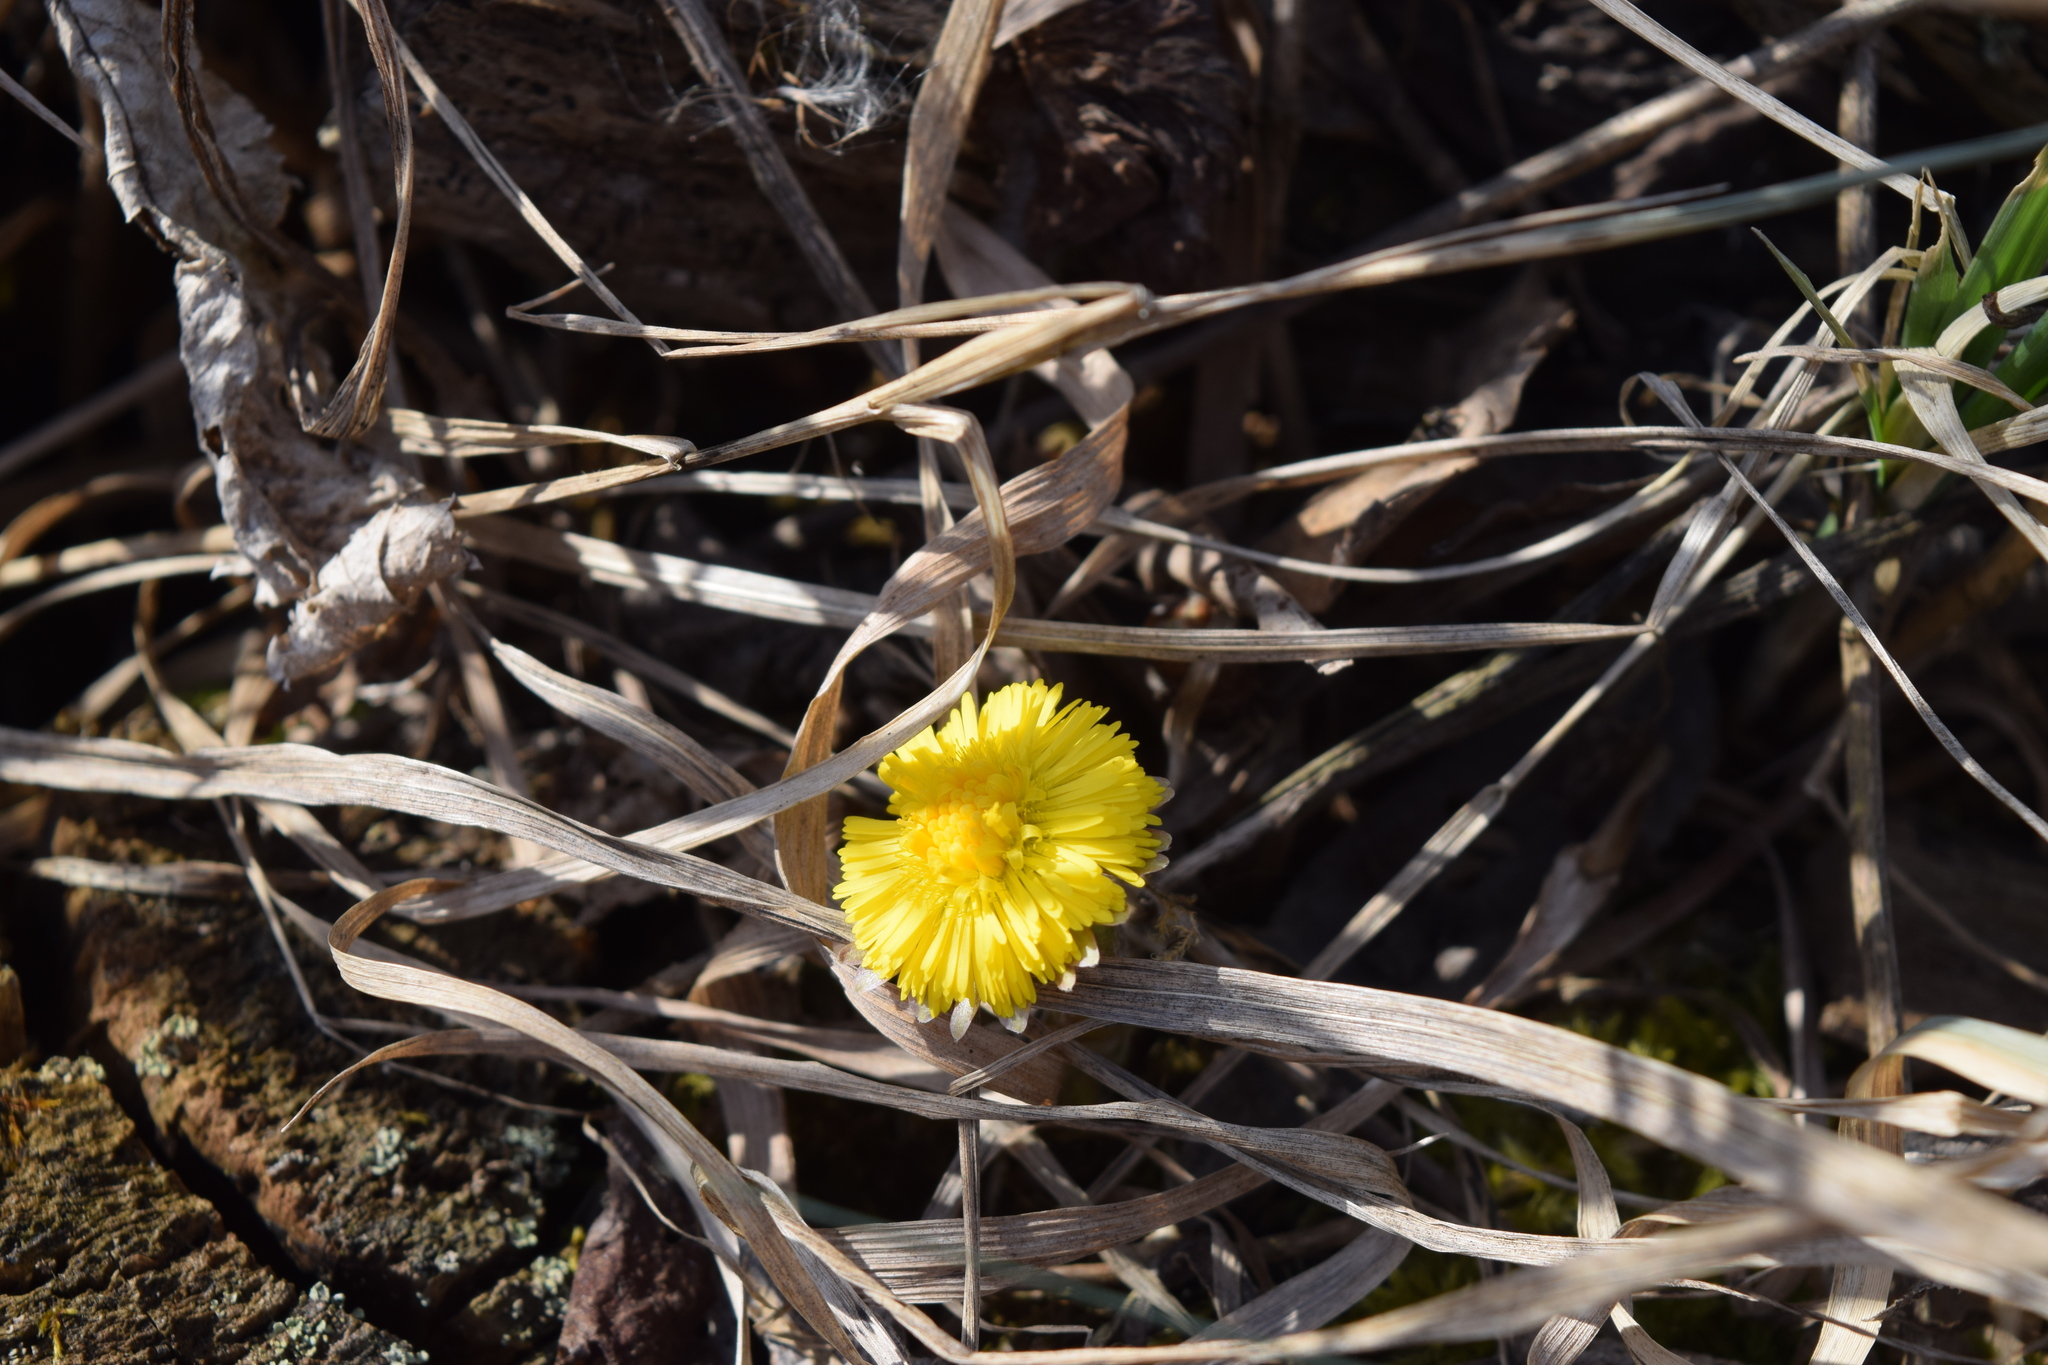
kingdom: Plantae
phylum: Tracheophyta
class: Magnoliopsida
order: Asterales
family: Asteraceae
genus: Tussilago
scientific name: Tussilago farfara
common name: Coltsfoot
